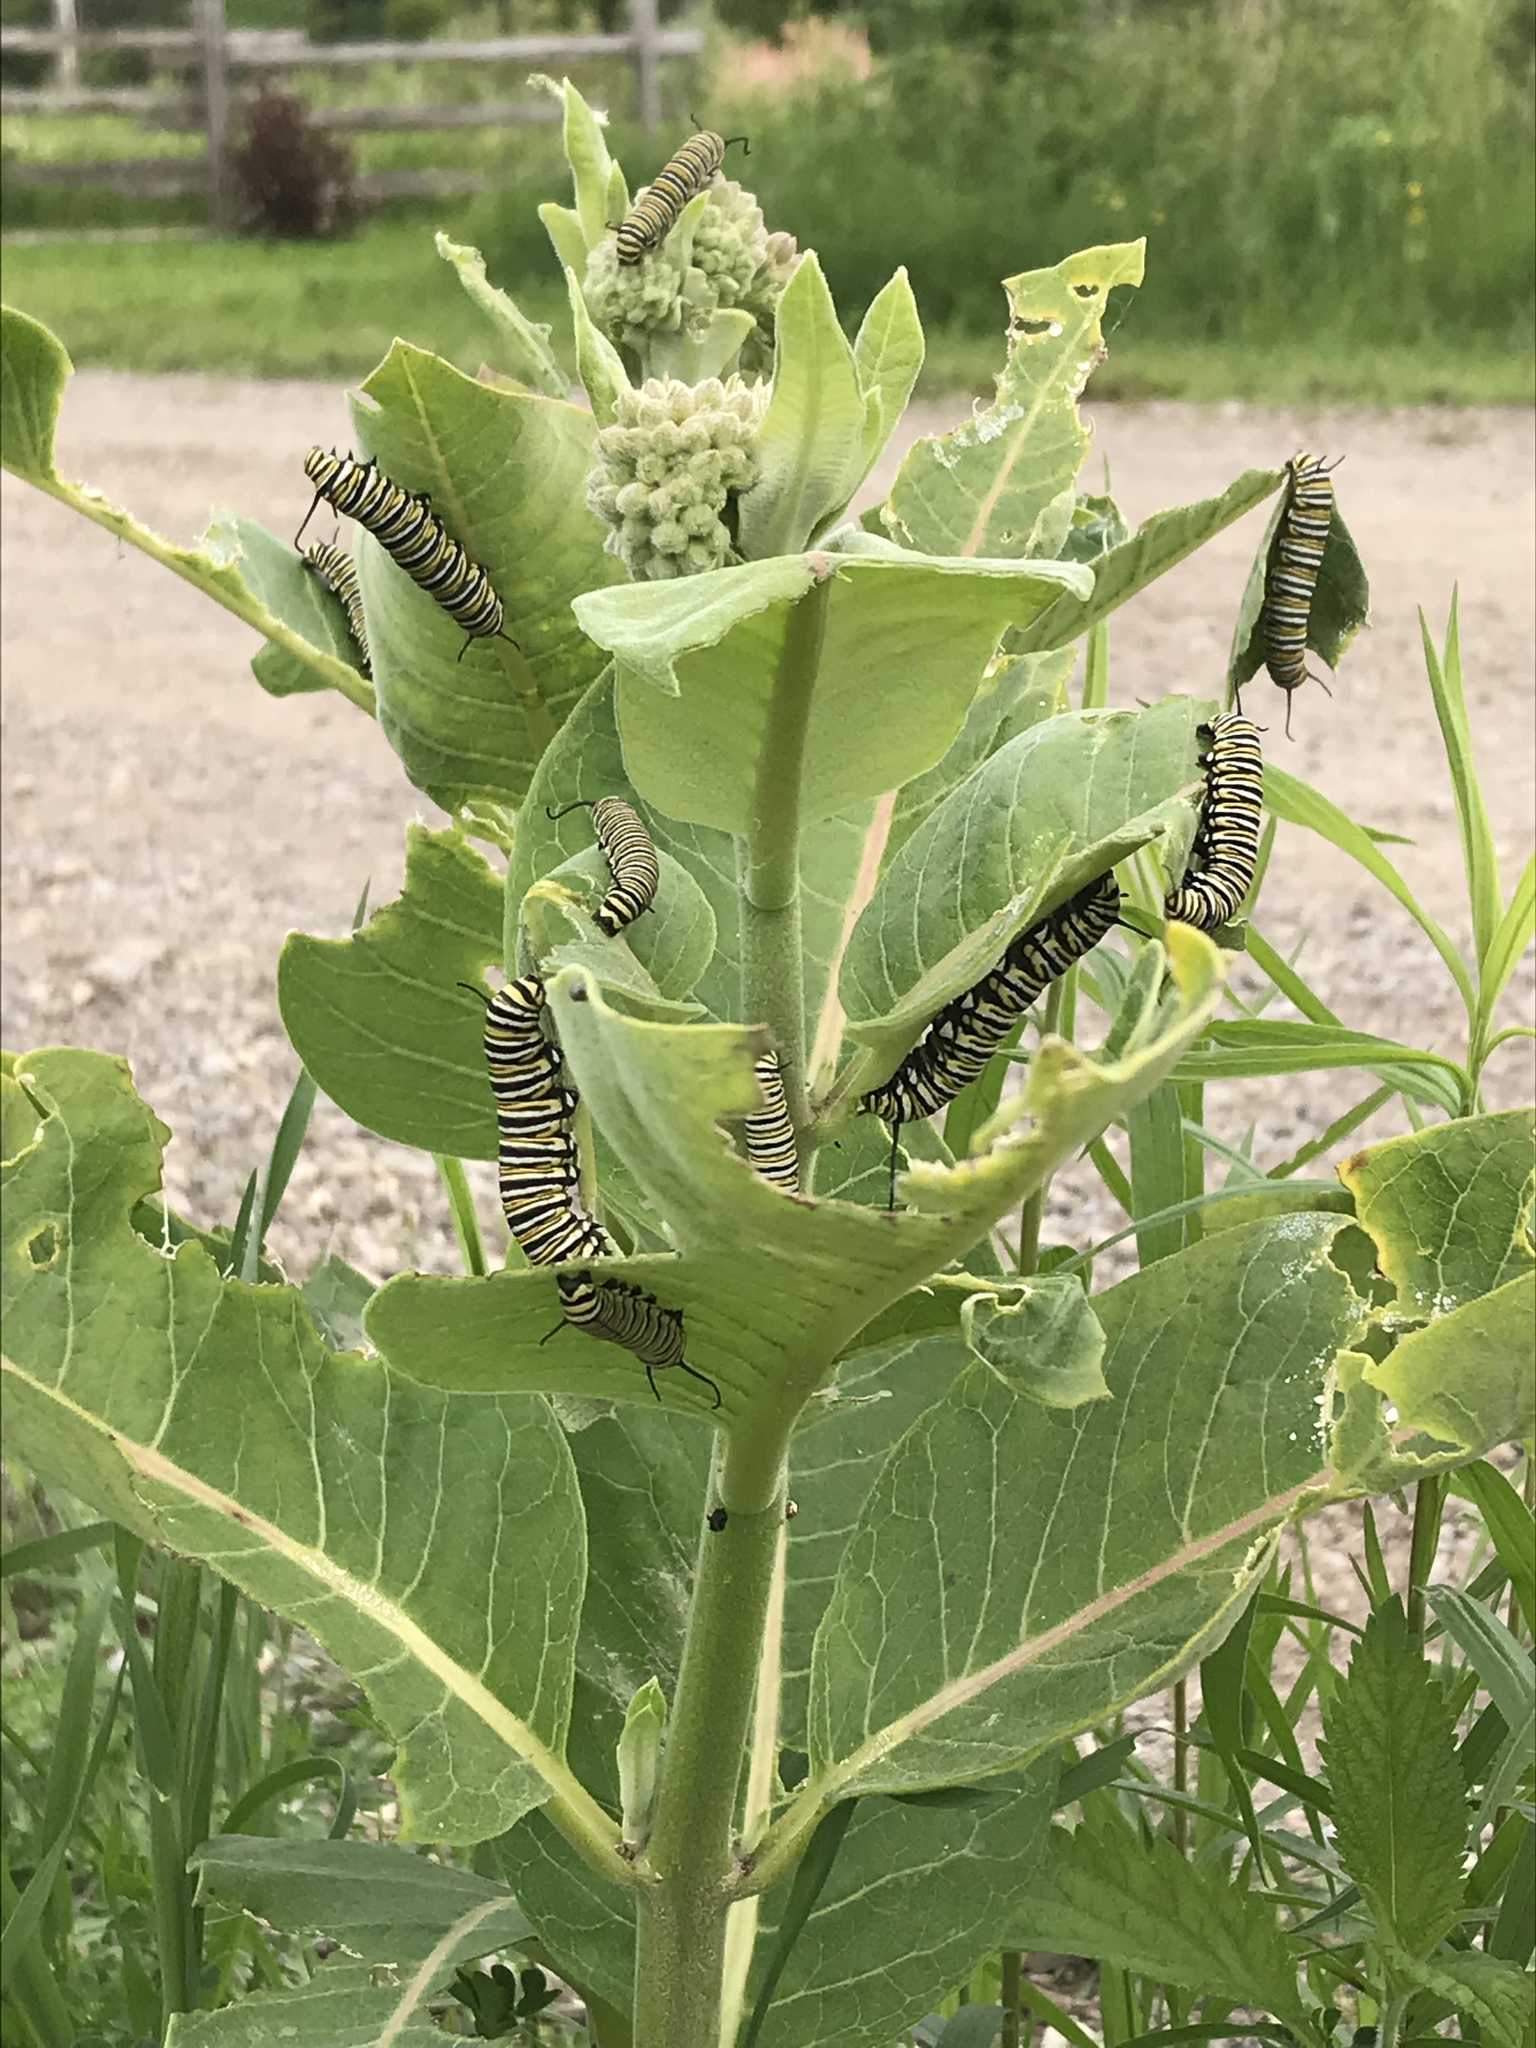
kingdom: Animalia
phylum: Arthropoda
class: Insecta
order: Lepidoptera
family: Nymphalidae
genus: Danaus
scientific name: Danaus plexippus
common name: Monarch
